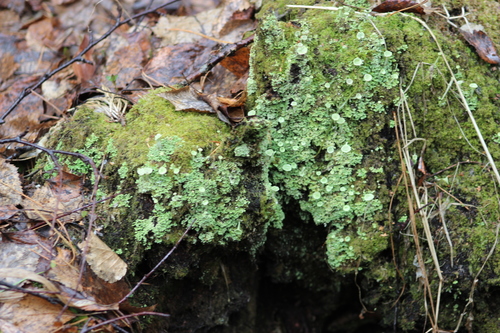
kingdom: Fungi
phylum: Ascomycota
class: Lecanoromycetes
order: Lecanorales
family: Cladoniaceae
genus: Cladonia
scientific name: Cladonia fimbriata
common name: Powdered trumpet lichen
